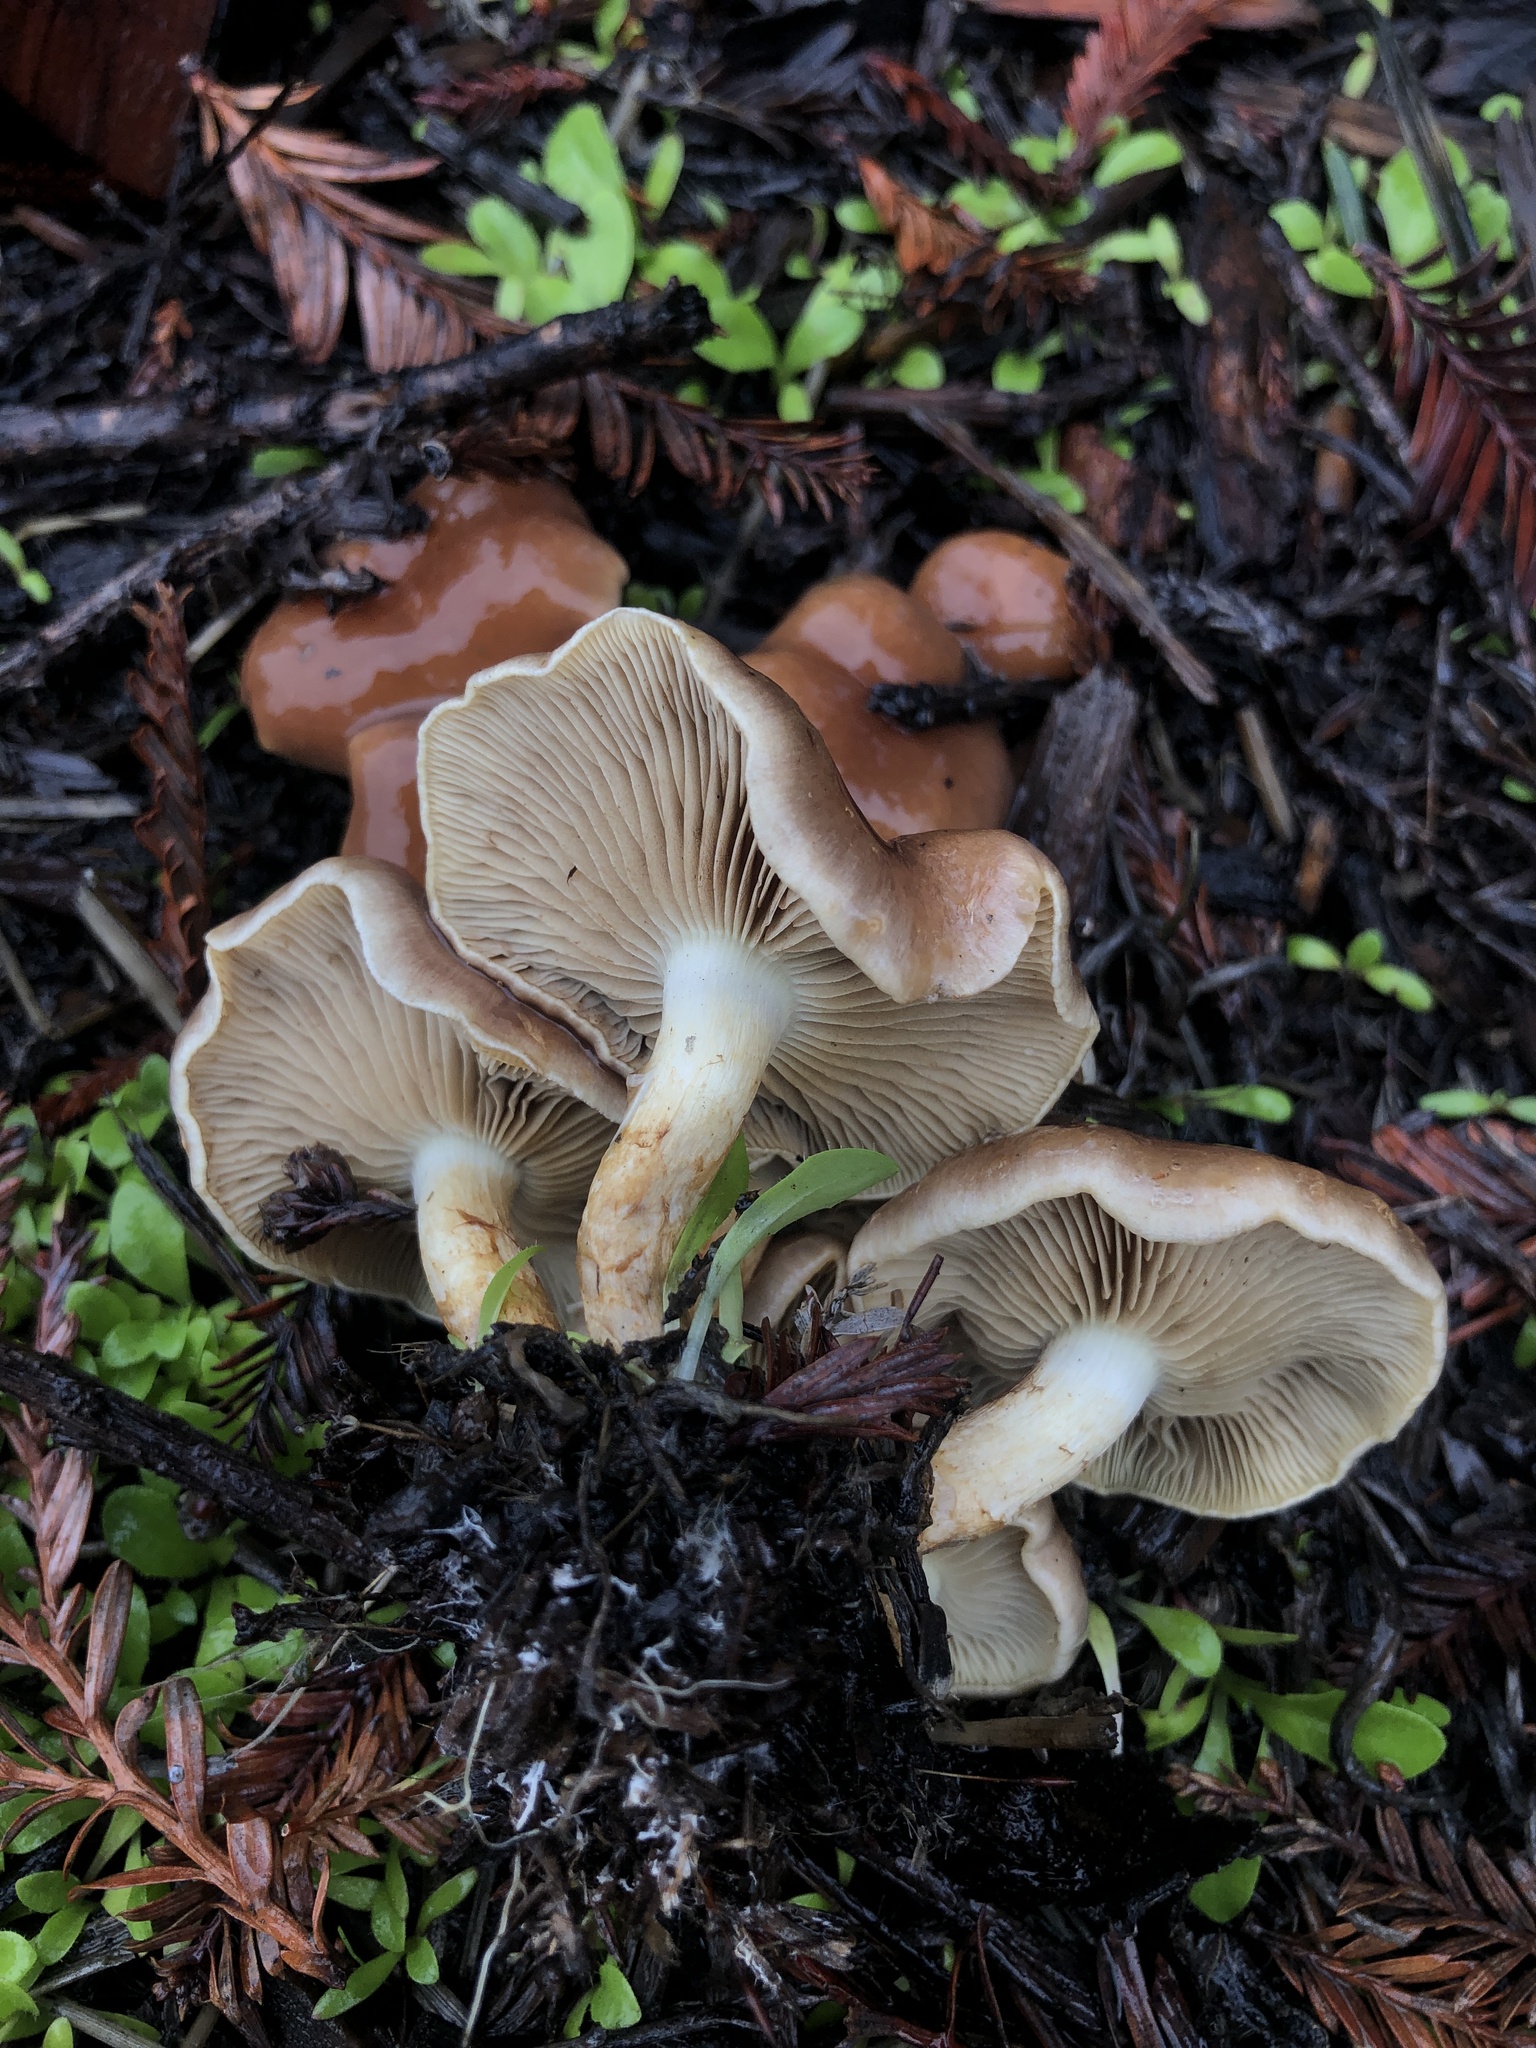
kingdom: Fungi
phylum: Basidiomycota
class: Agaricomycetes
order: Agaricales
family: Strophariaceae
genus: Pholiota
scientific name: Pholiota spumosa
